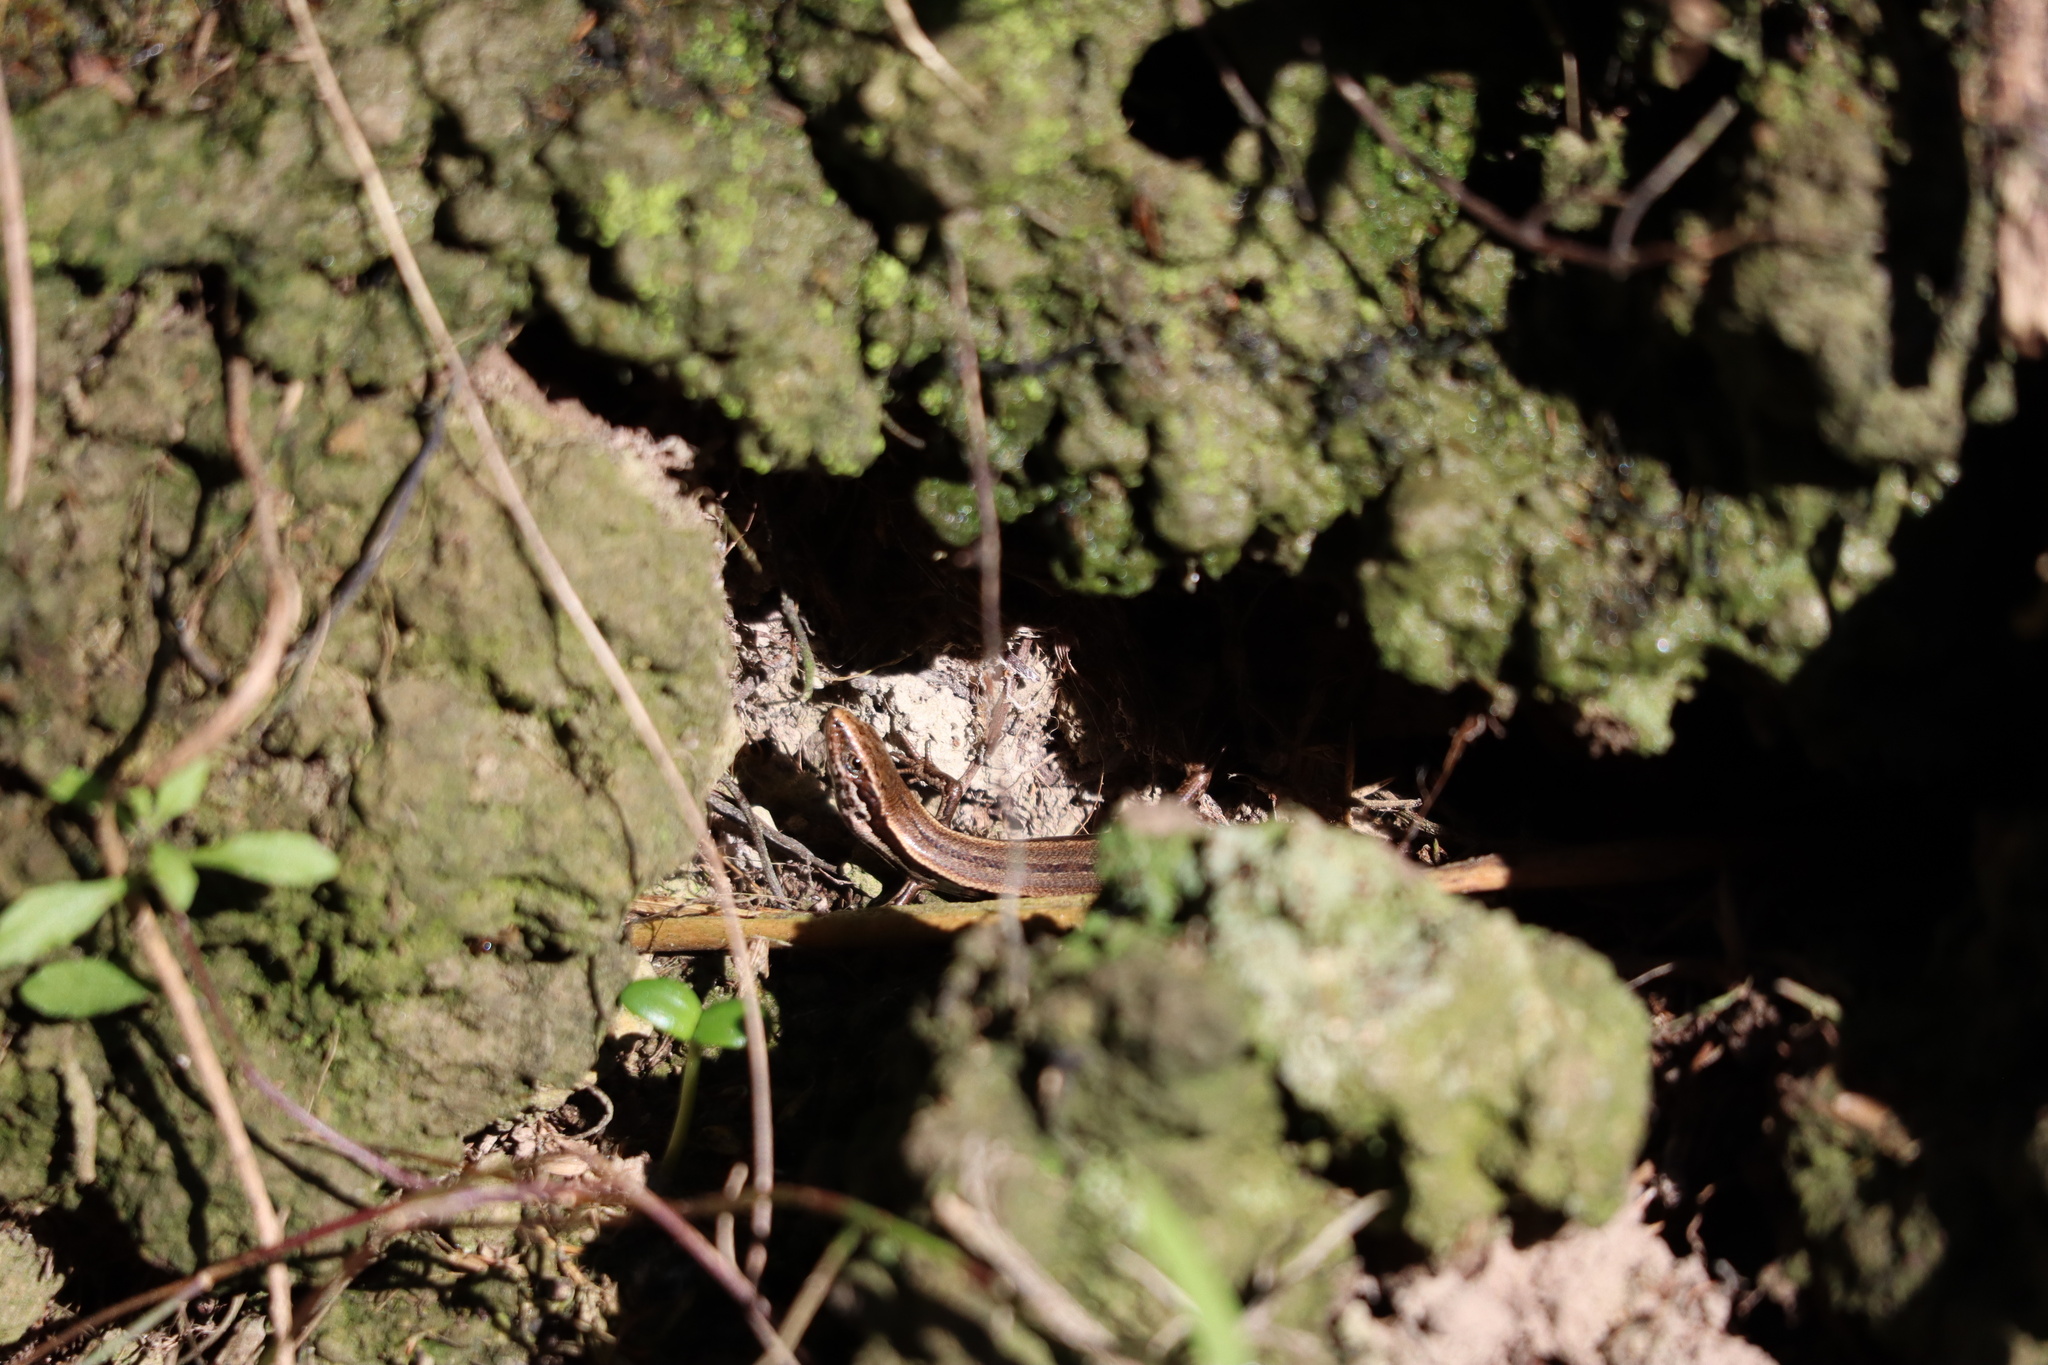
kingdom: Animalia
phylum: Chordata
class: Squamata
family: Scincidae
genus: Oligosoma
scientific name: Oligosoma polychroma
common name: Common new zealand skink
